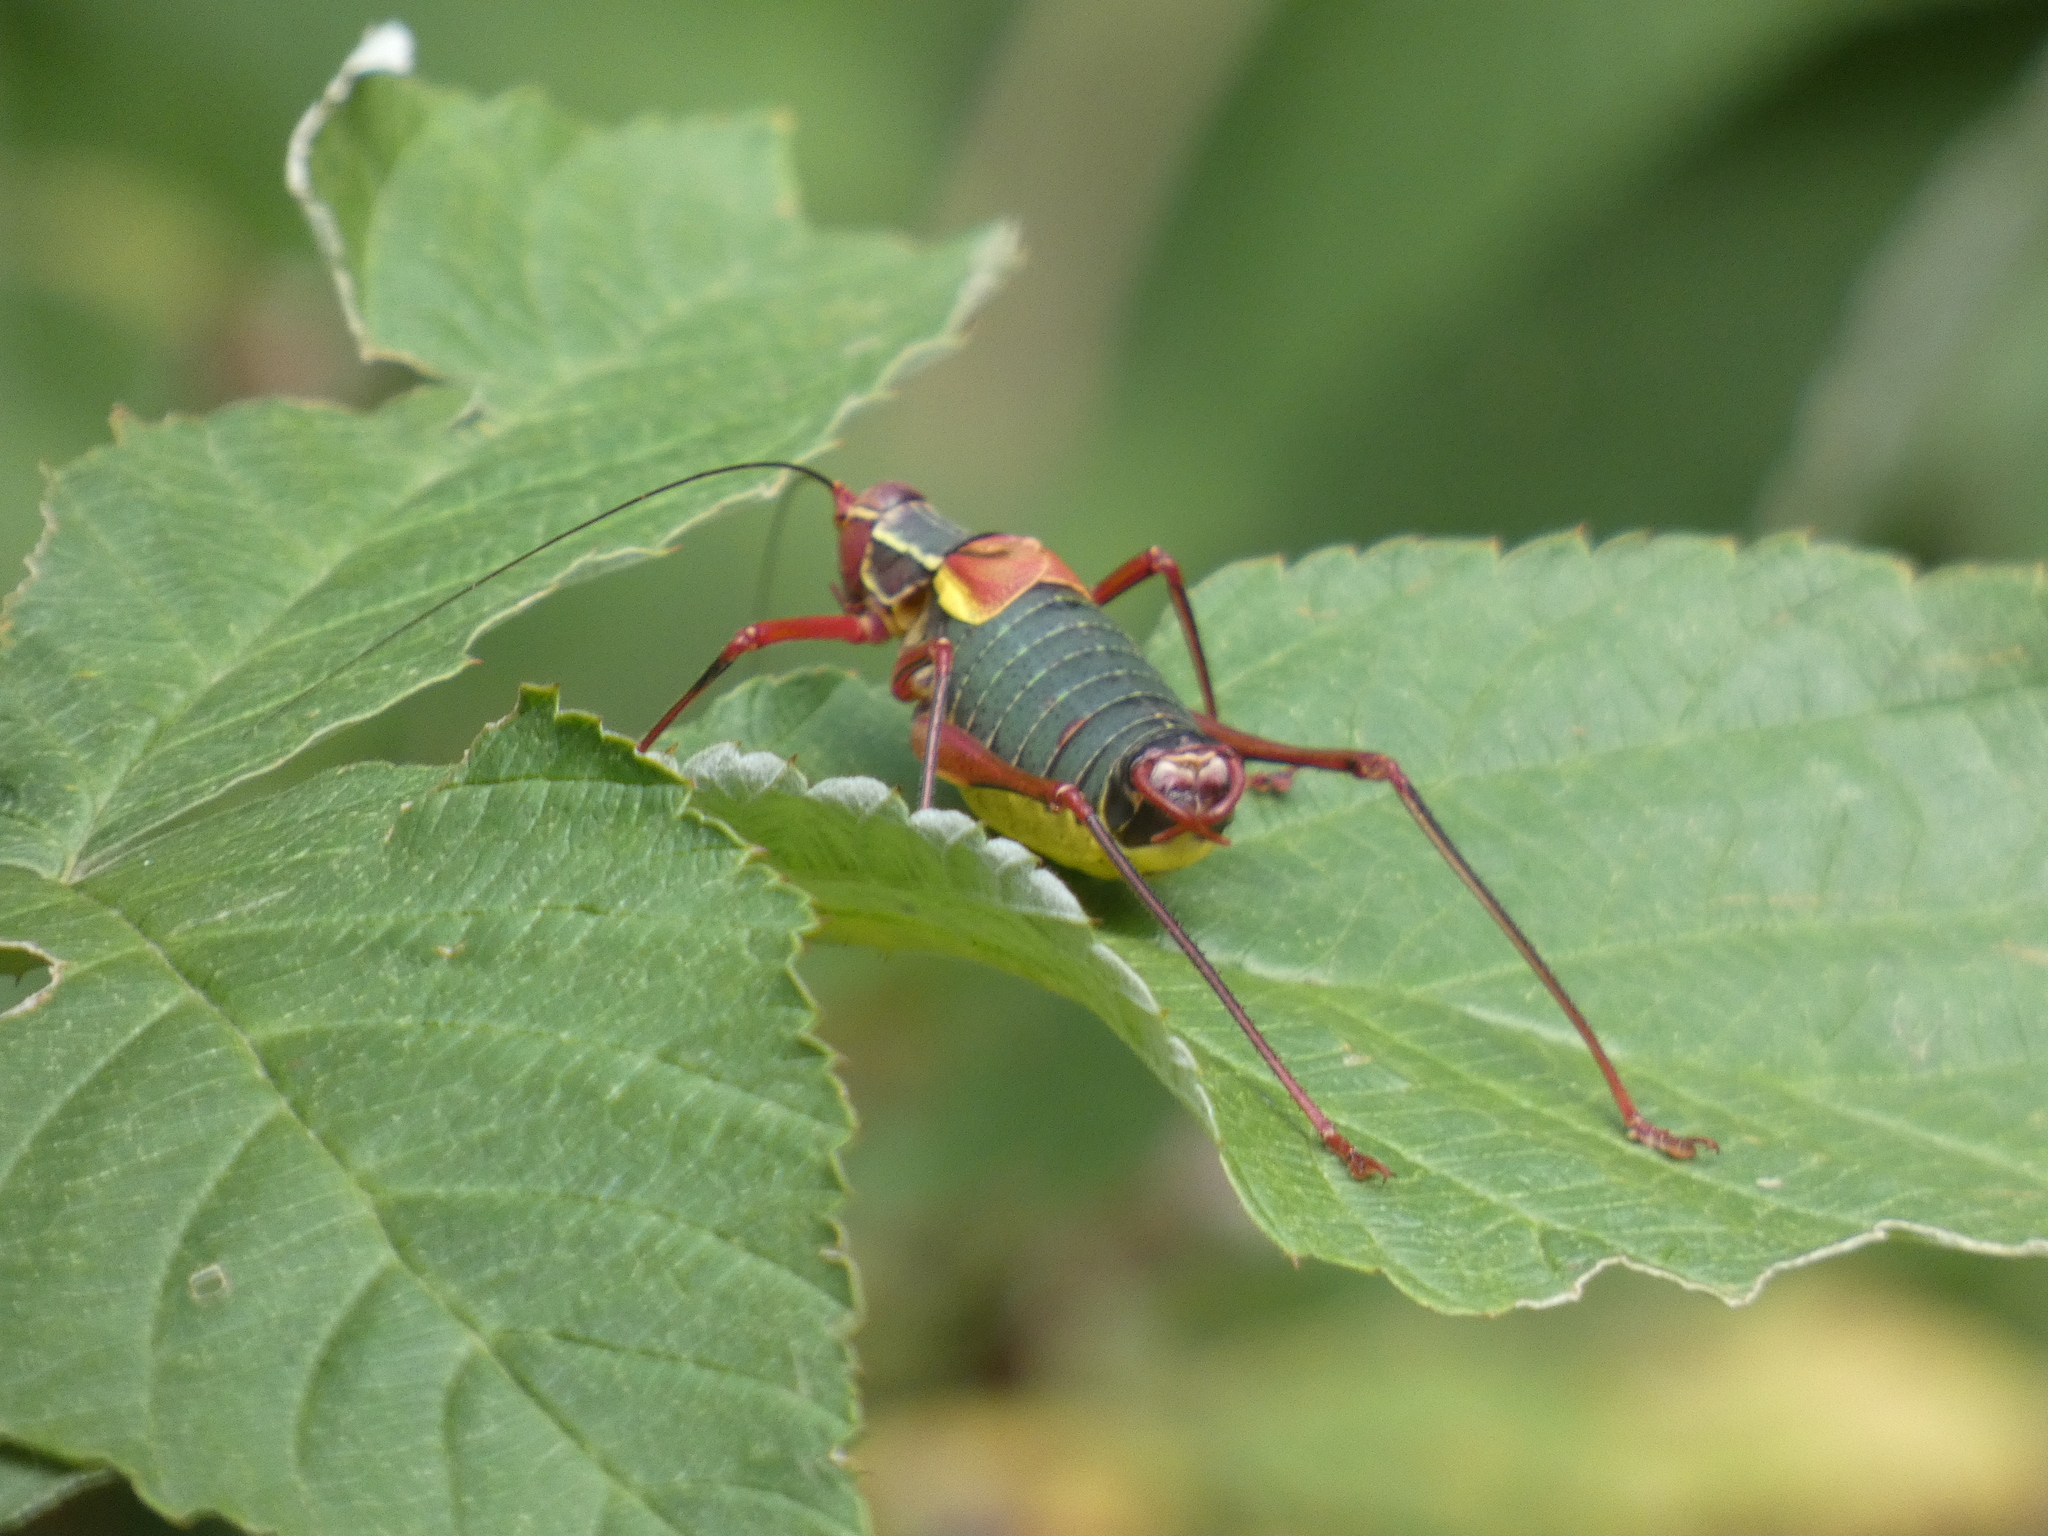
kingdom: Animalia
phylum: Arthropoda
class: Insecta
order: Orthoptera
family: Tettigoniidae
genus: Barbitistes
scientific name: Barbitistes obtusus
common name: Alpine saw bush-cricket
